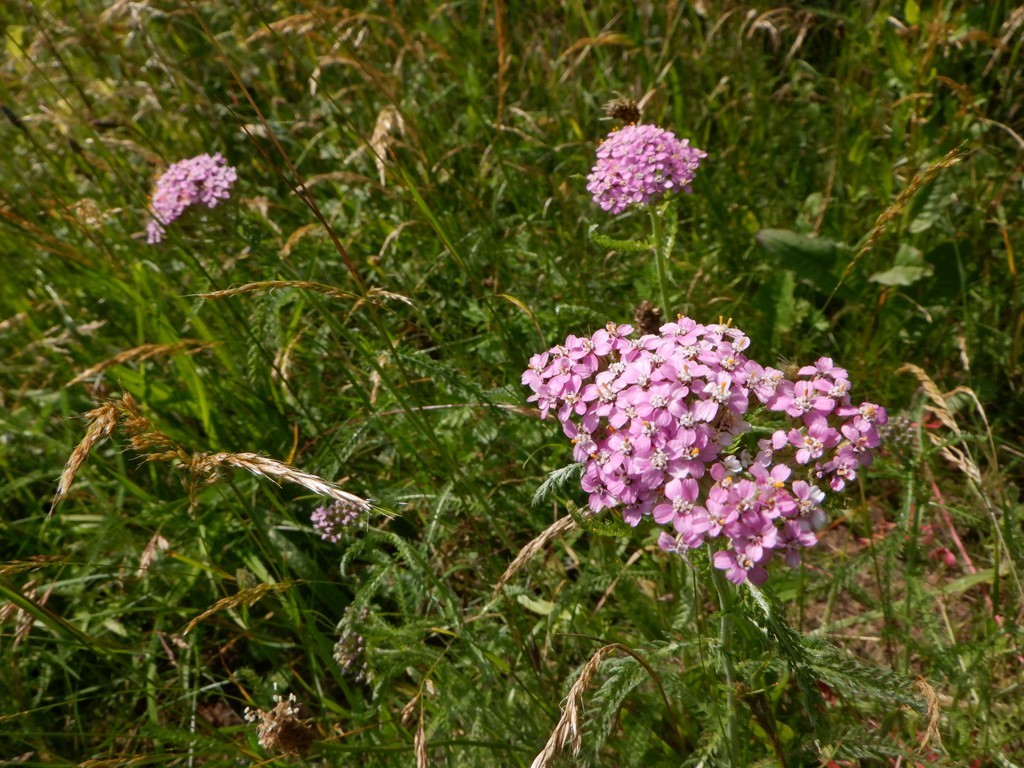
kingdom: Plantae
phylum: Tracheophyta
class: Magnoliopsida
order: Asterales
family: Asteraceae
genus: Achillea
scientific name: Achillea millefolium
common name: Yarrow
